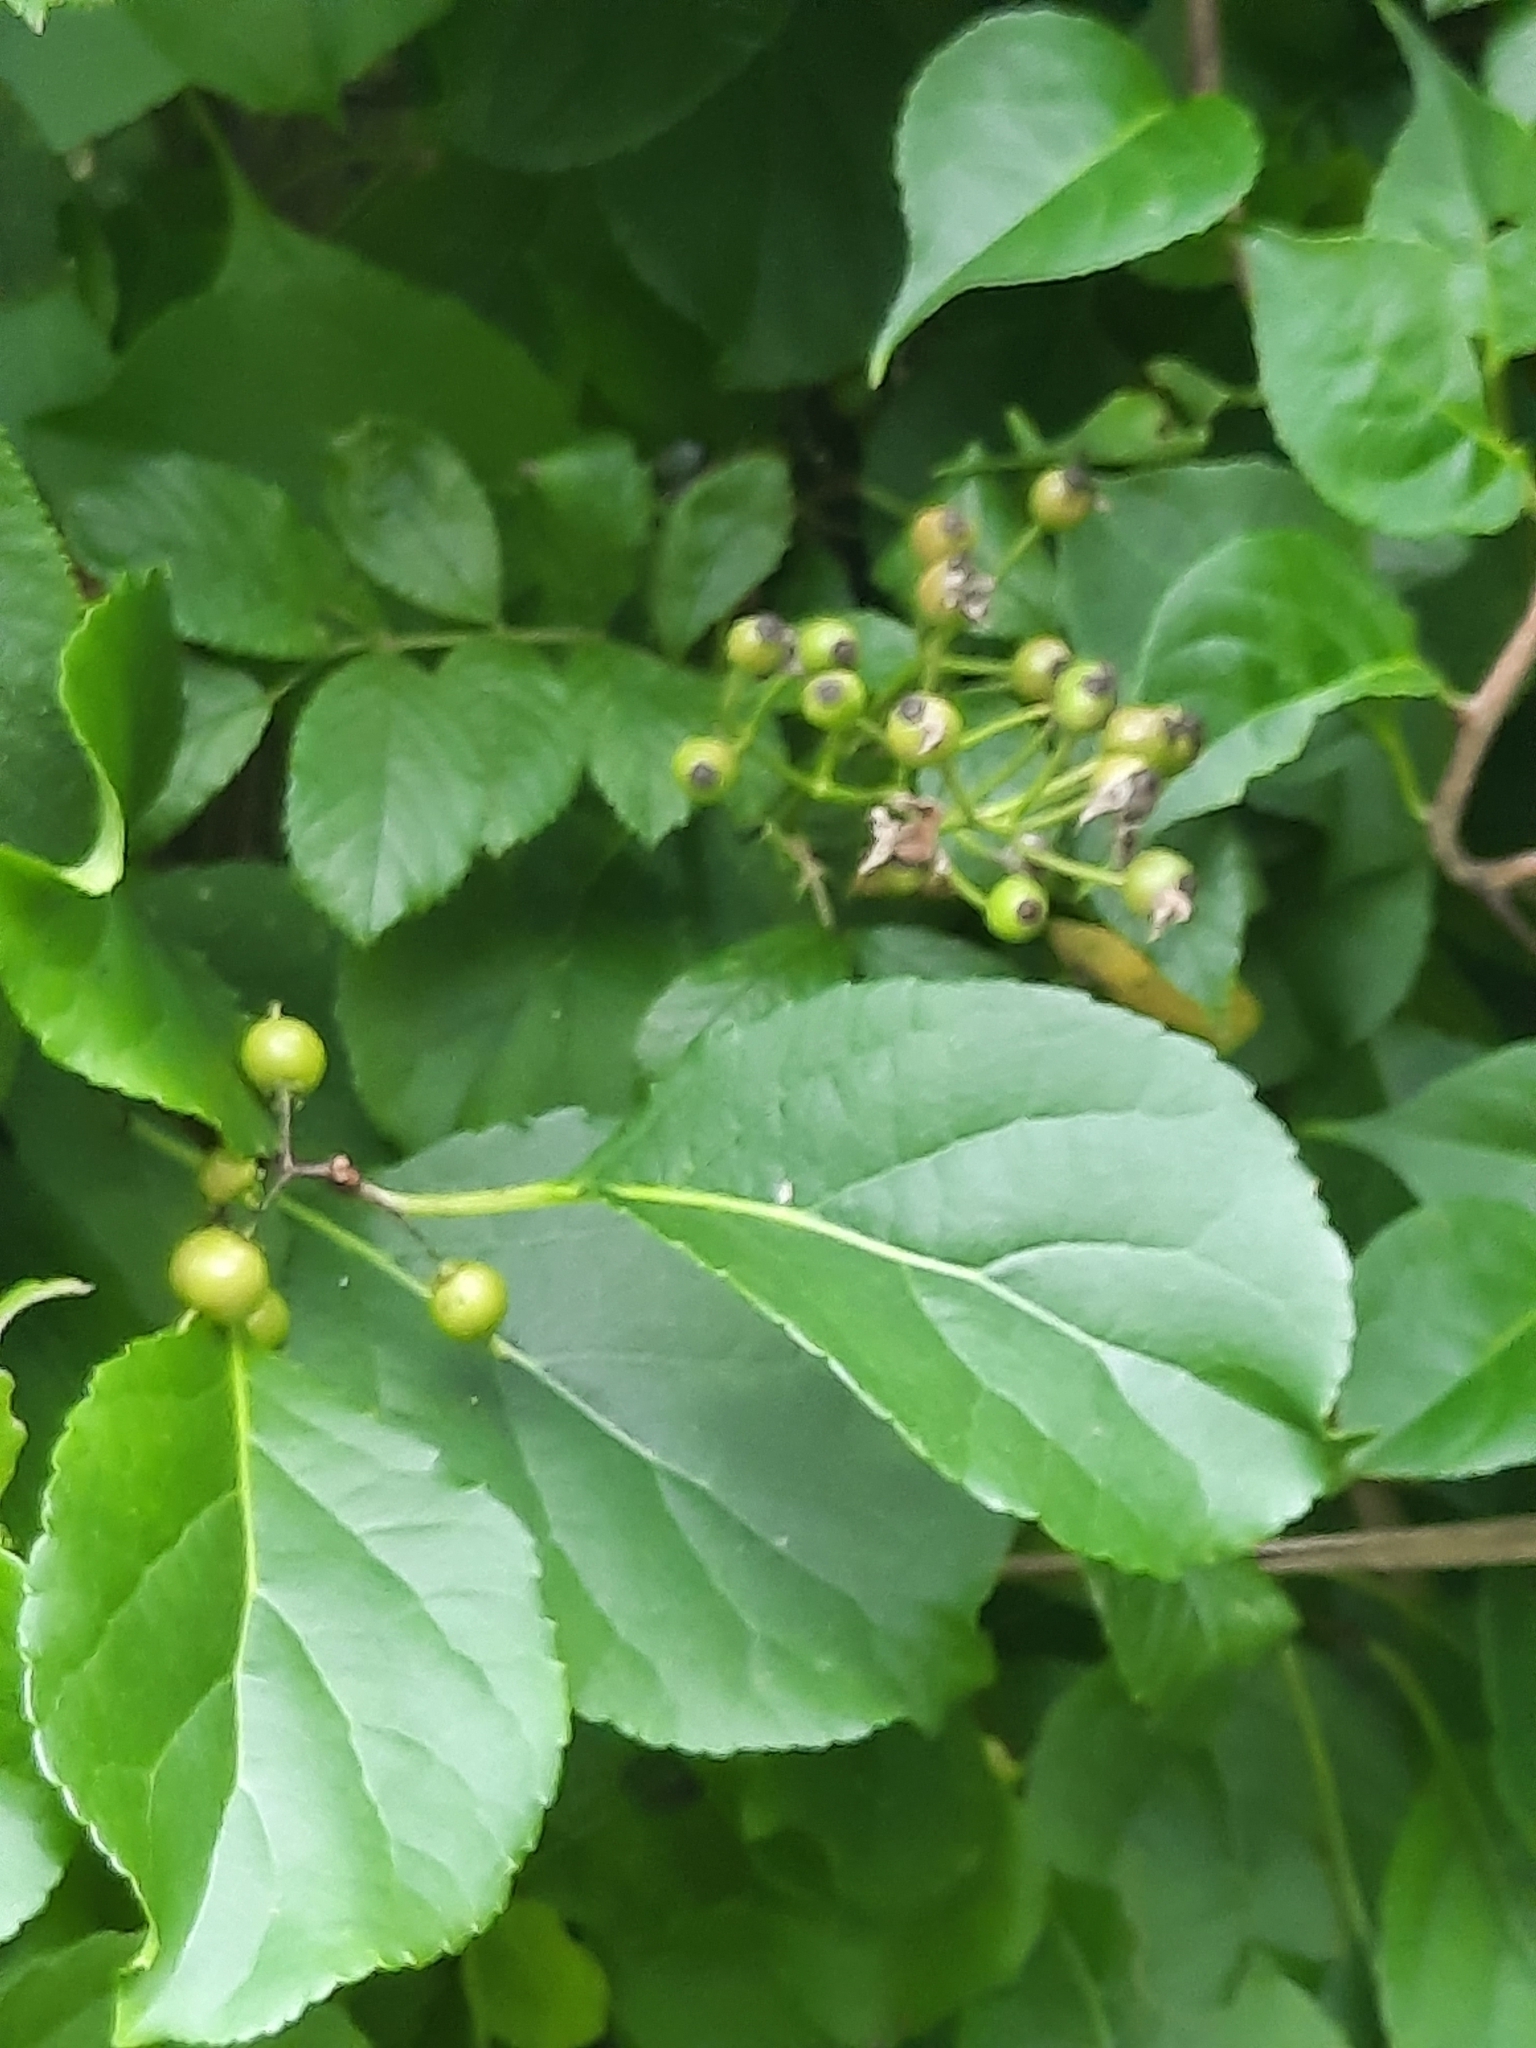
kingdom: Plantae
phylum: Tracheophyta
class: Magnoliopsida
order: Celastrales
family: Celastraceae
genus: Celastrus
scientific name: Celastrus orbiculatus
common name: Oriental bittersweet
